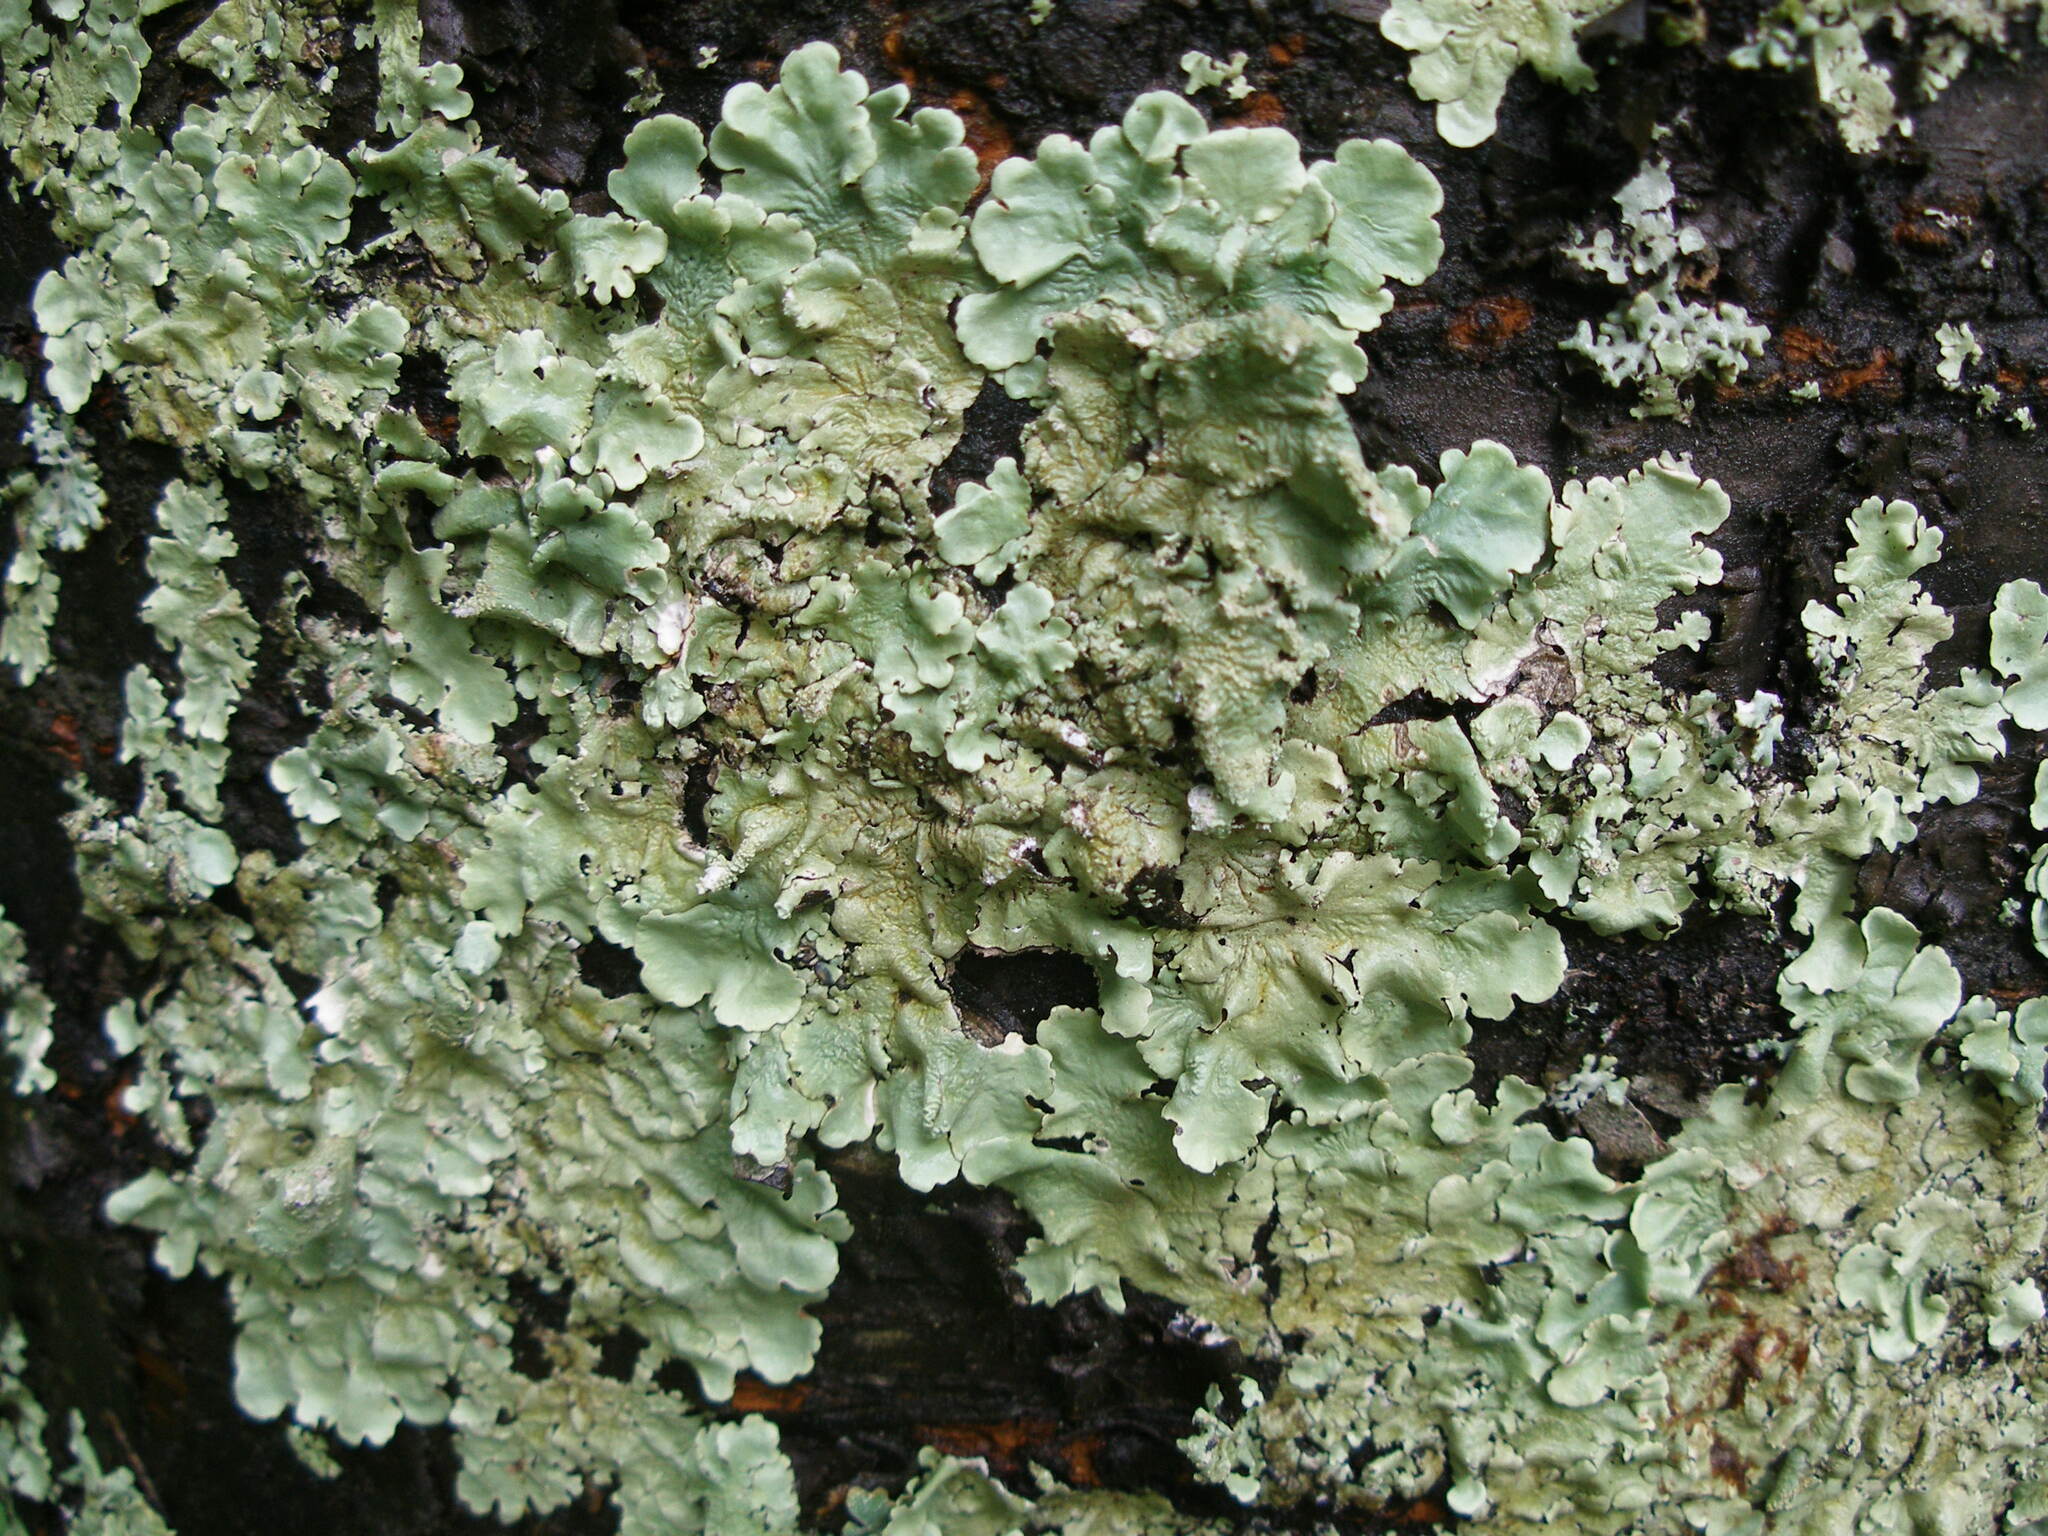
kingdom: Fungi
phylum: Ascomycota
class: Lecanoromycetes
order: Lecanorales
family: Parmeliaceae
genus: Flavoparmelia
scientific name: Flavoparmelia caperata
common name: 40-mile per hour lichen
